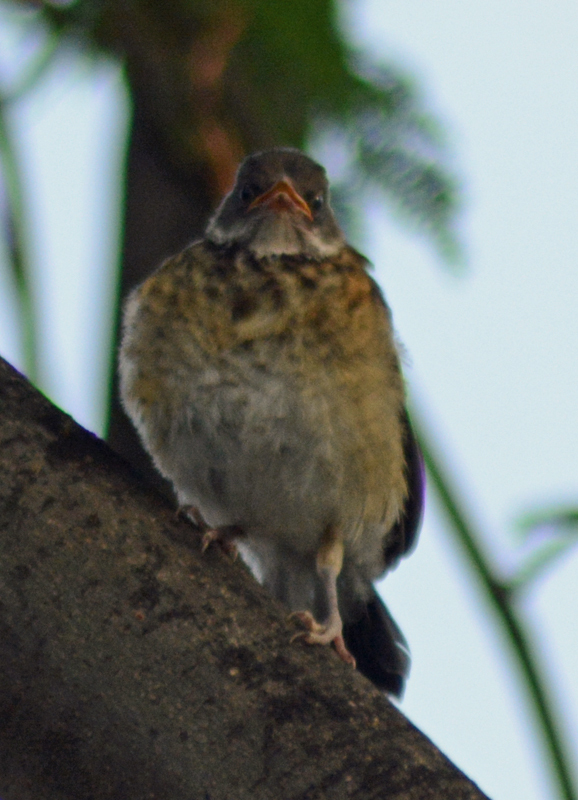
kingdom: Animalia
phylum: Chordata
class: Aves
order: Passeriformes
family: Turdidae
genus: Turdus
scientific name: Turdus rufopalliatus
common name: Rufous-backed robin
